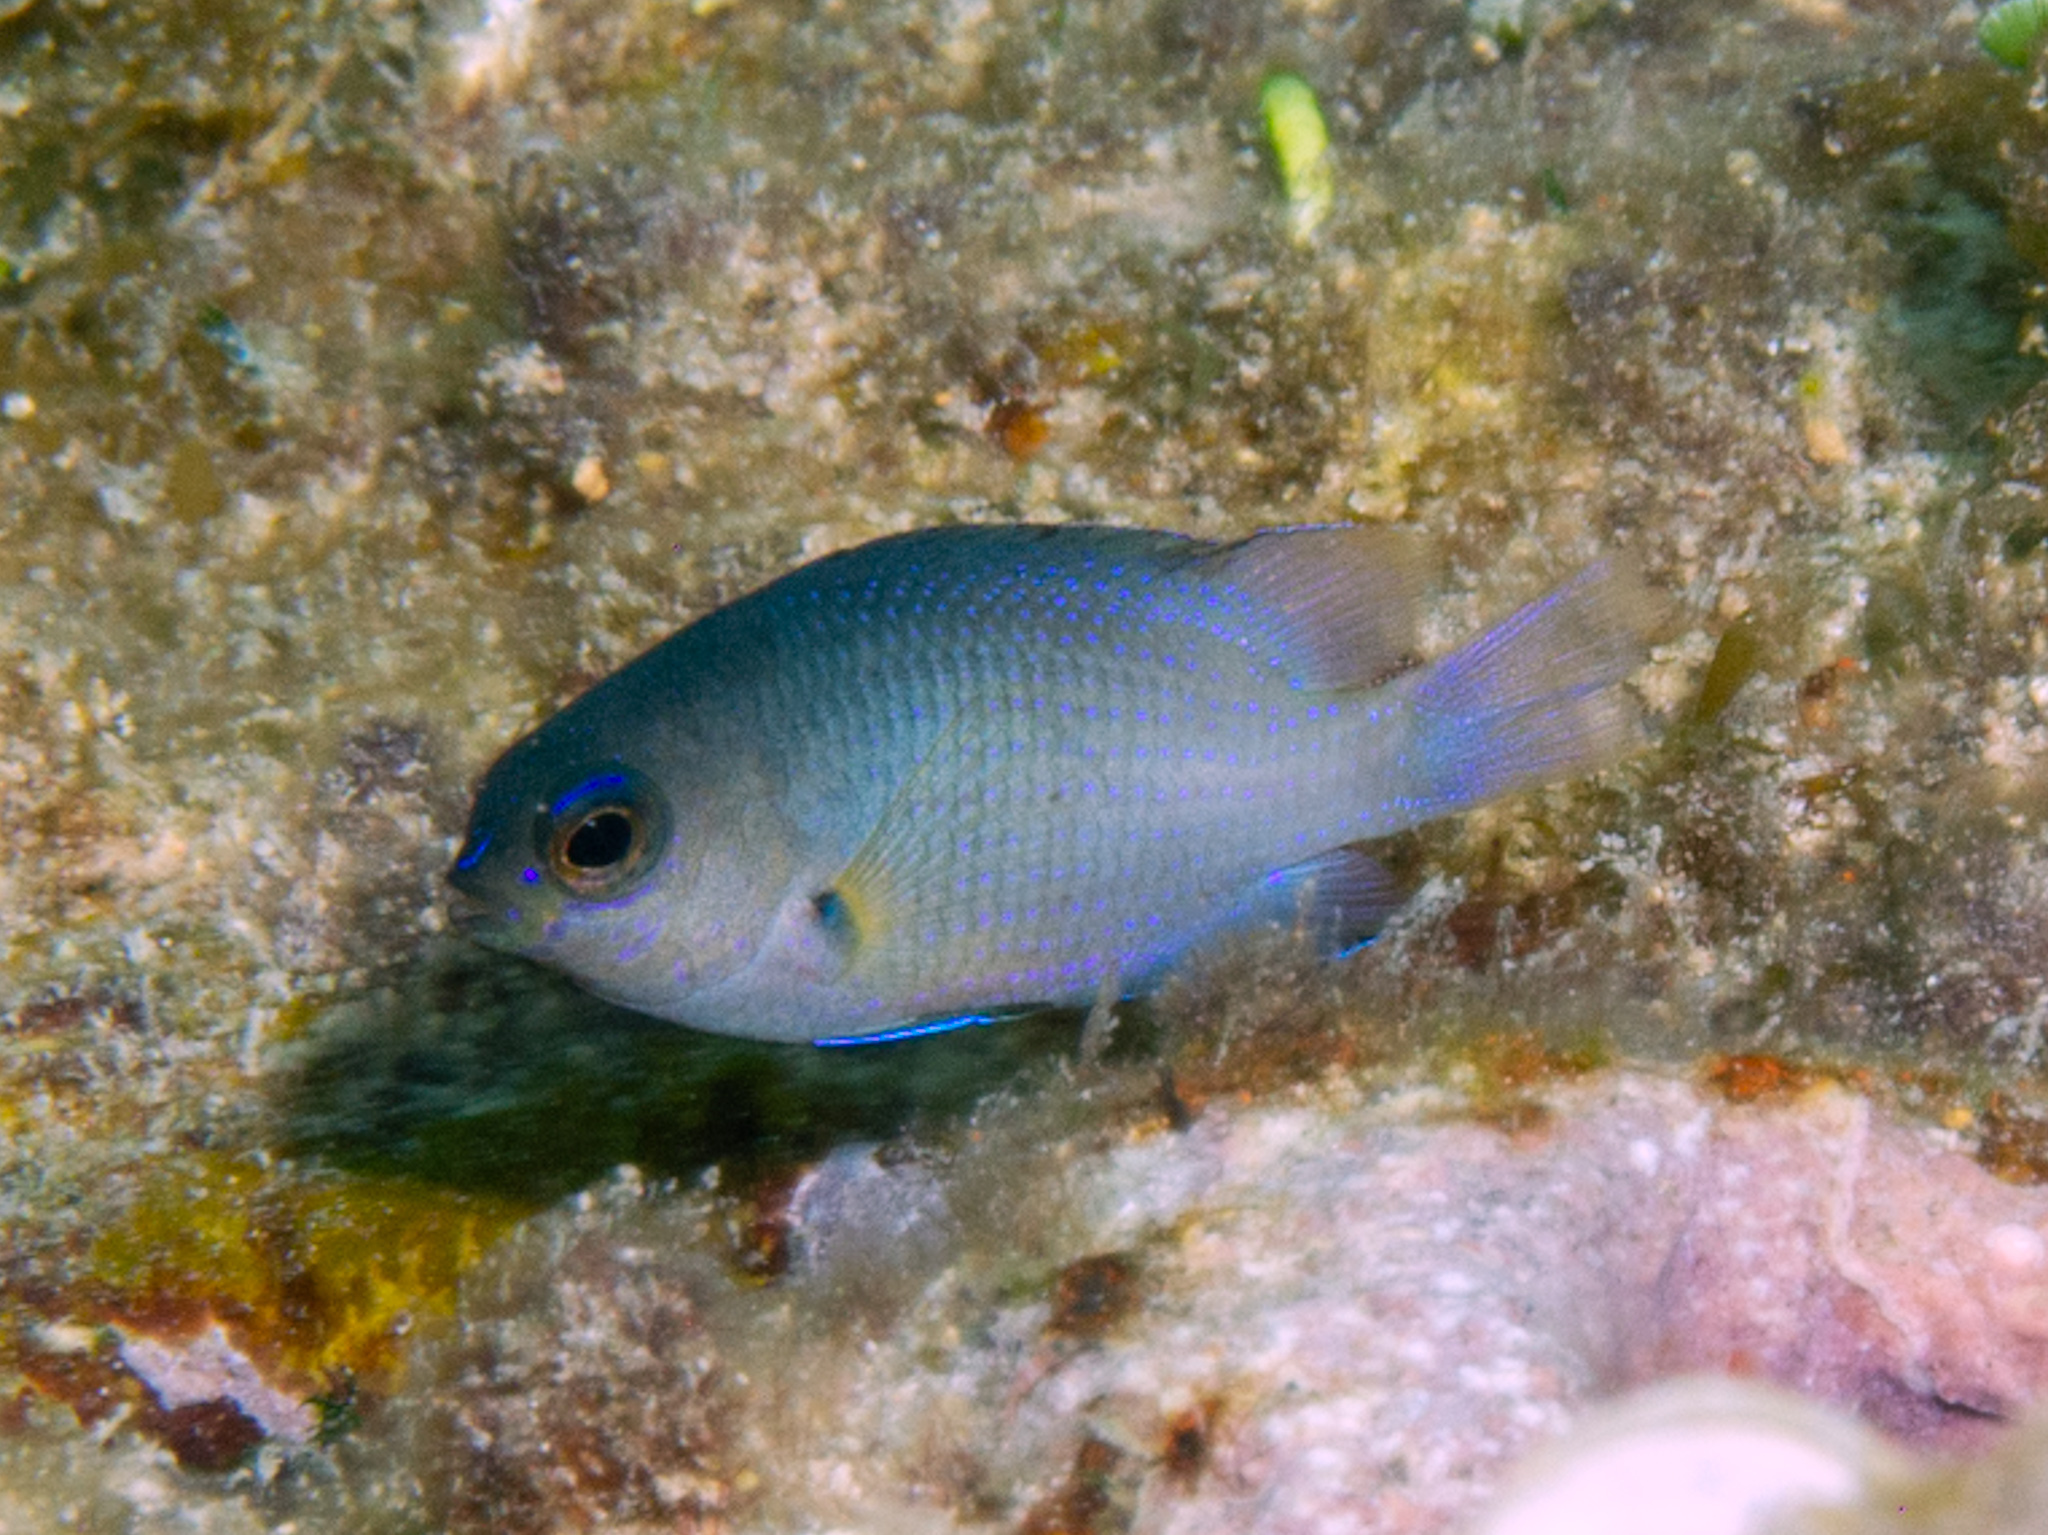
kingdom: Animalia
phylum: Chordata
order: Perciformes
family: Pomacentridae
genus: Stegastes
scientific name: Stegastes partitus
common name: Bicolor damselfish
